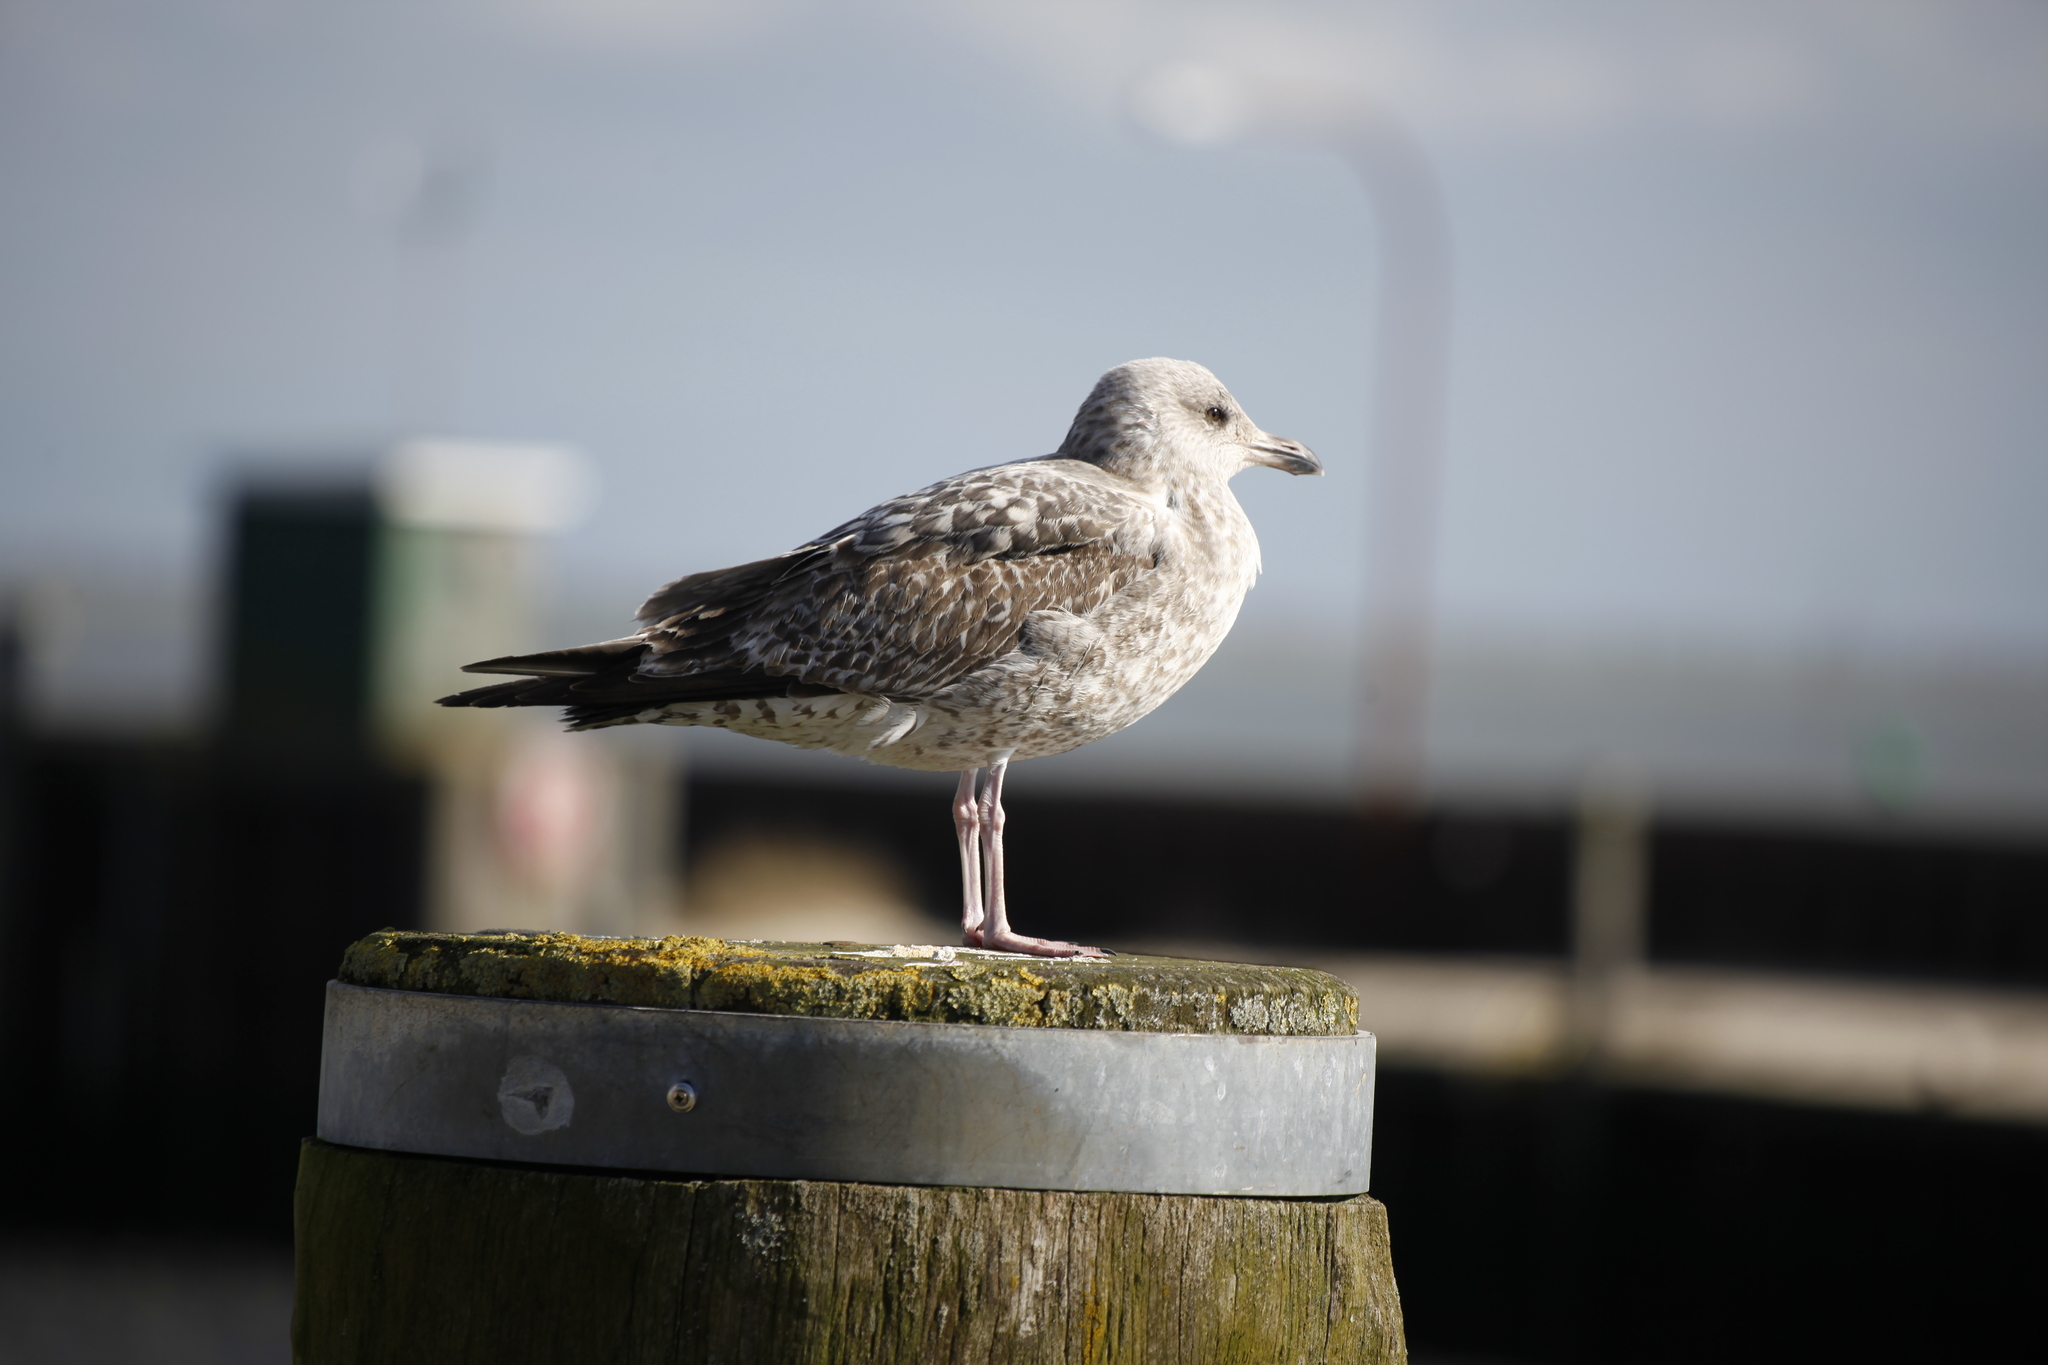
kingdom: Animalia
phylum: Chordata
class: Aves
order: Charadriiformes
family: Laridae
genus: Larus
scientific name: Larus argentatus
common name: Herring gull
